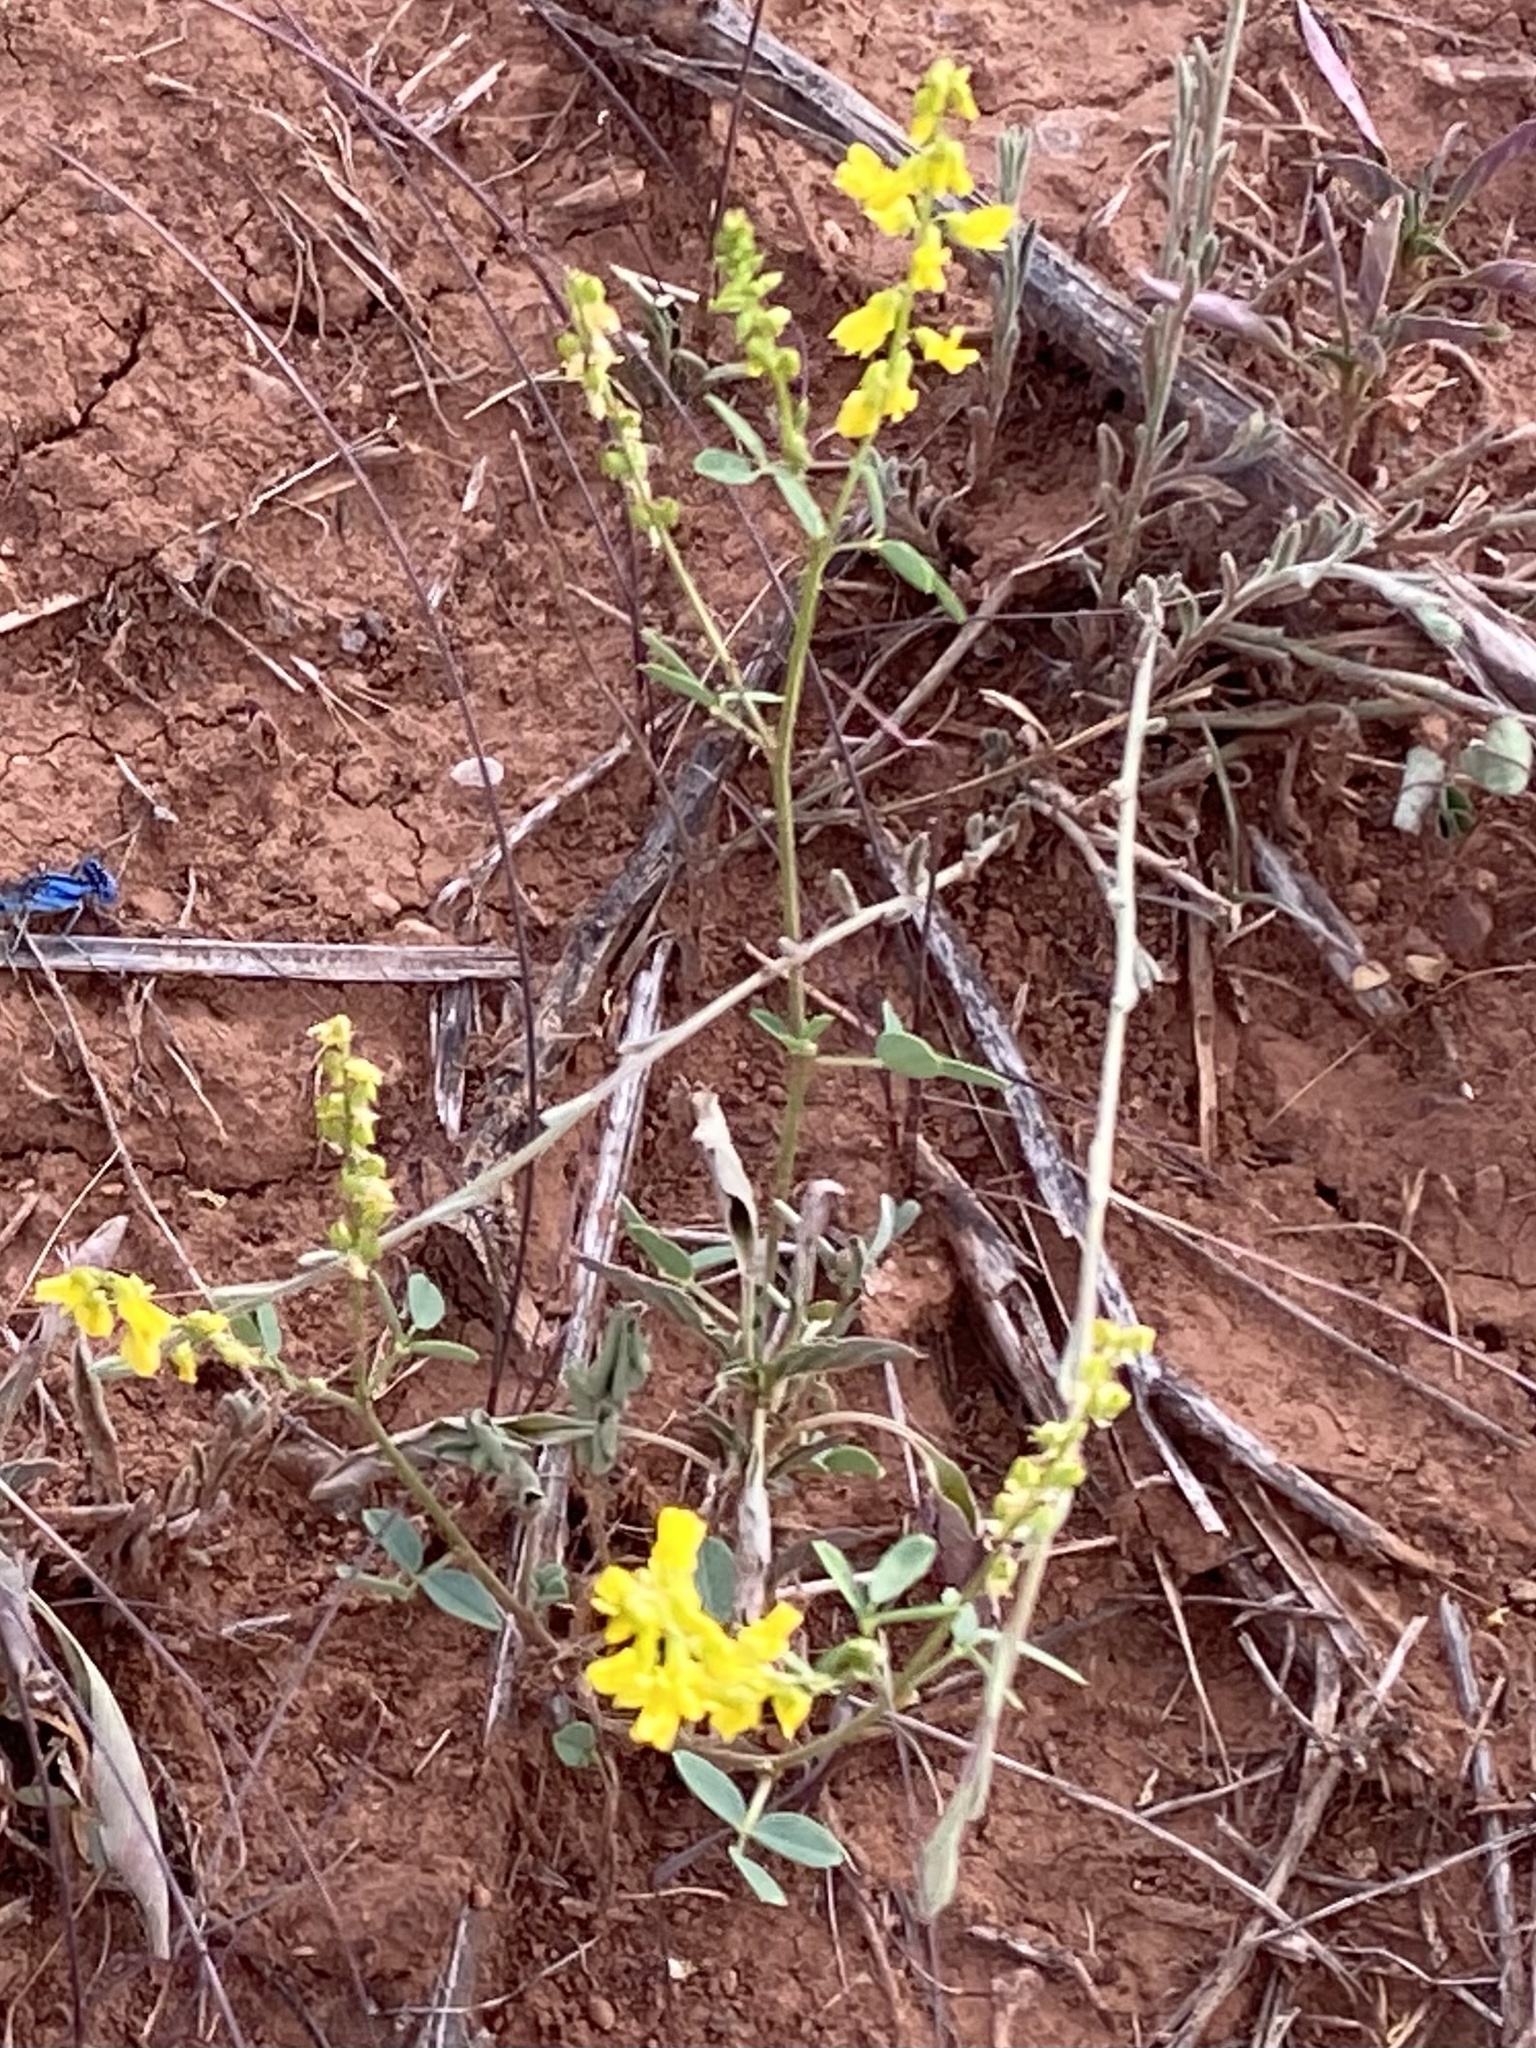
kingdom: Plantae
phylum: Tracheophyta
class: Magnoliopsida
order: Fabales
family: Fabaceae
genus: Melilotus
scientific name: Melilotus officinalis
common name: Sweetclover
